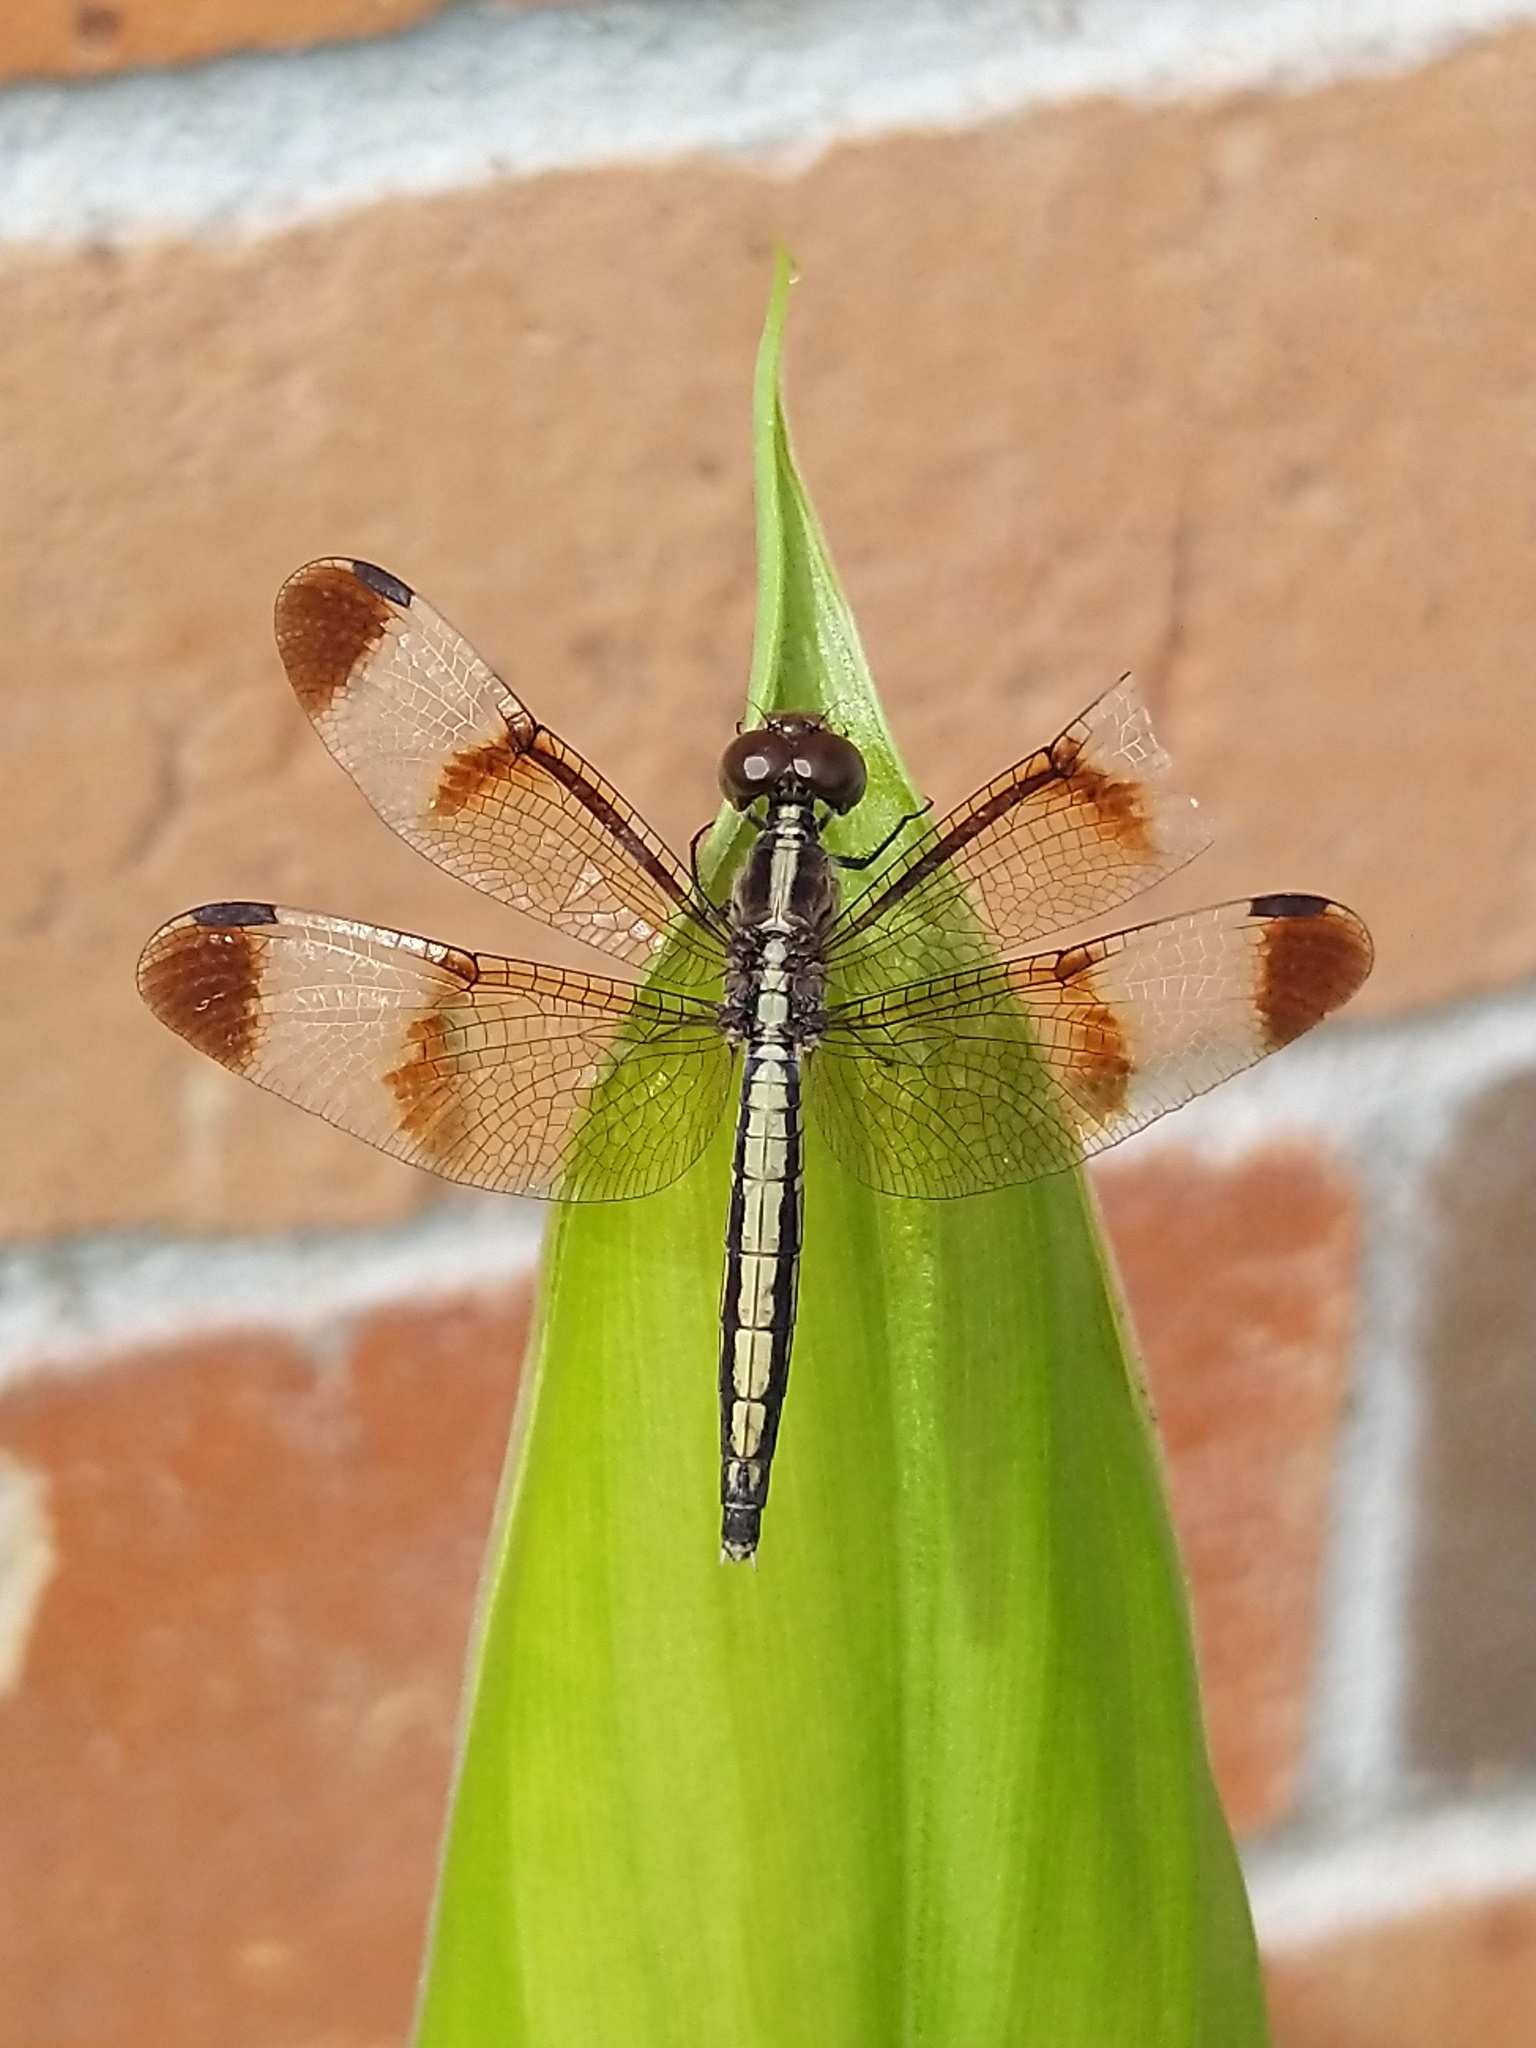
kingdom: Animalia
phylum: Arthropoda
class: Insecta
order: Odonata
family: Libellulidae
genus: Neurothemis
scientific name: Neurothemis tullia
